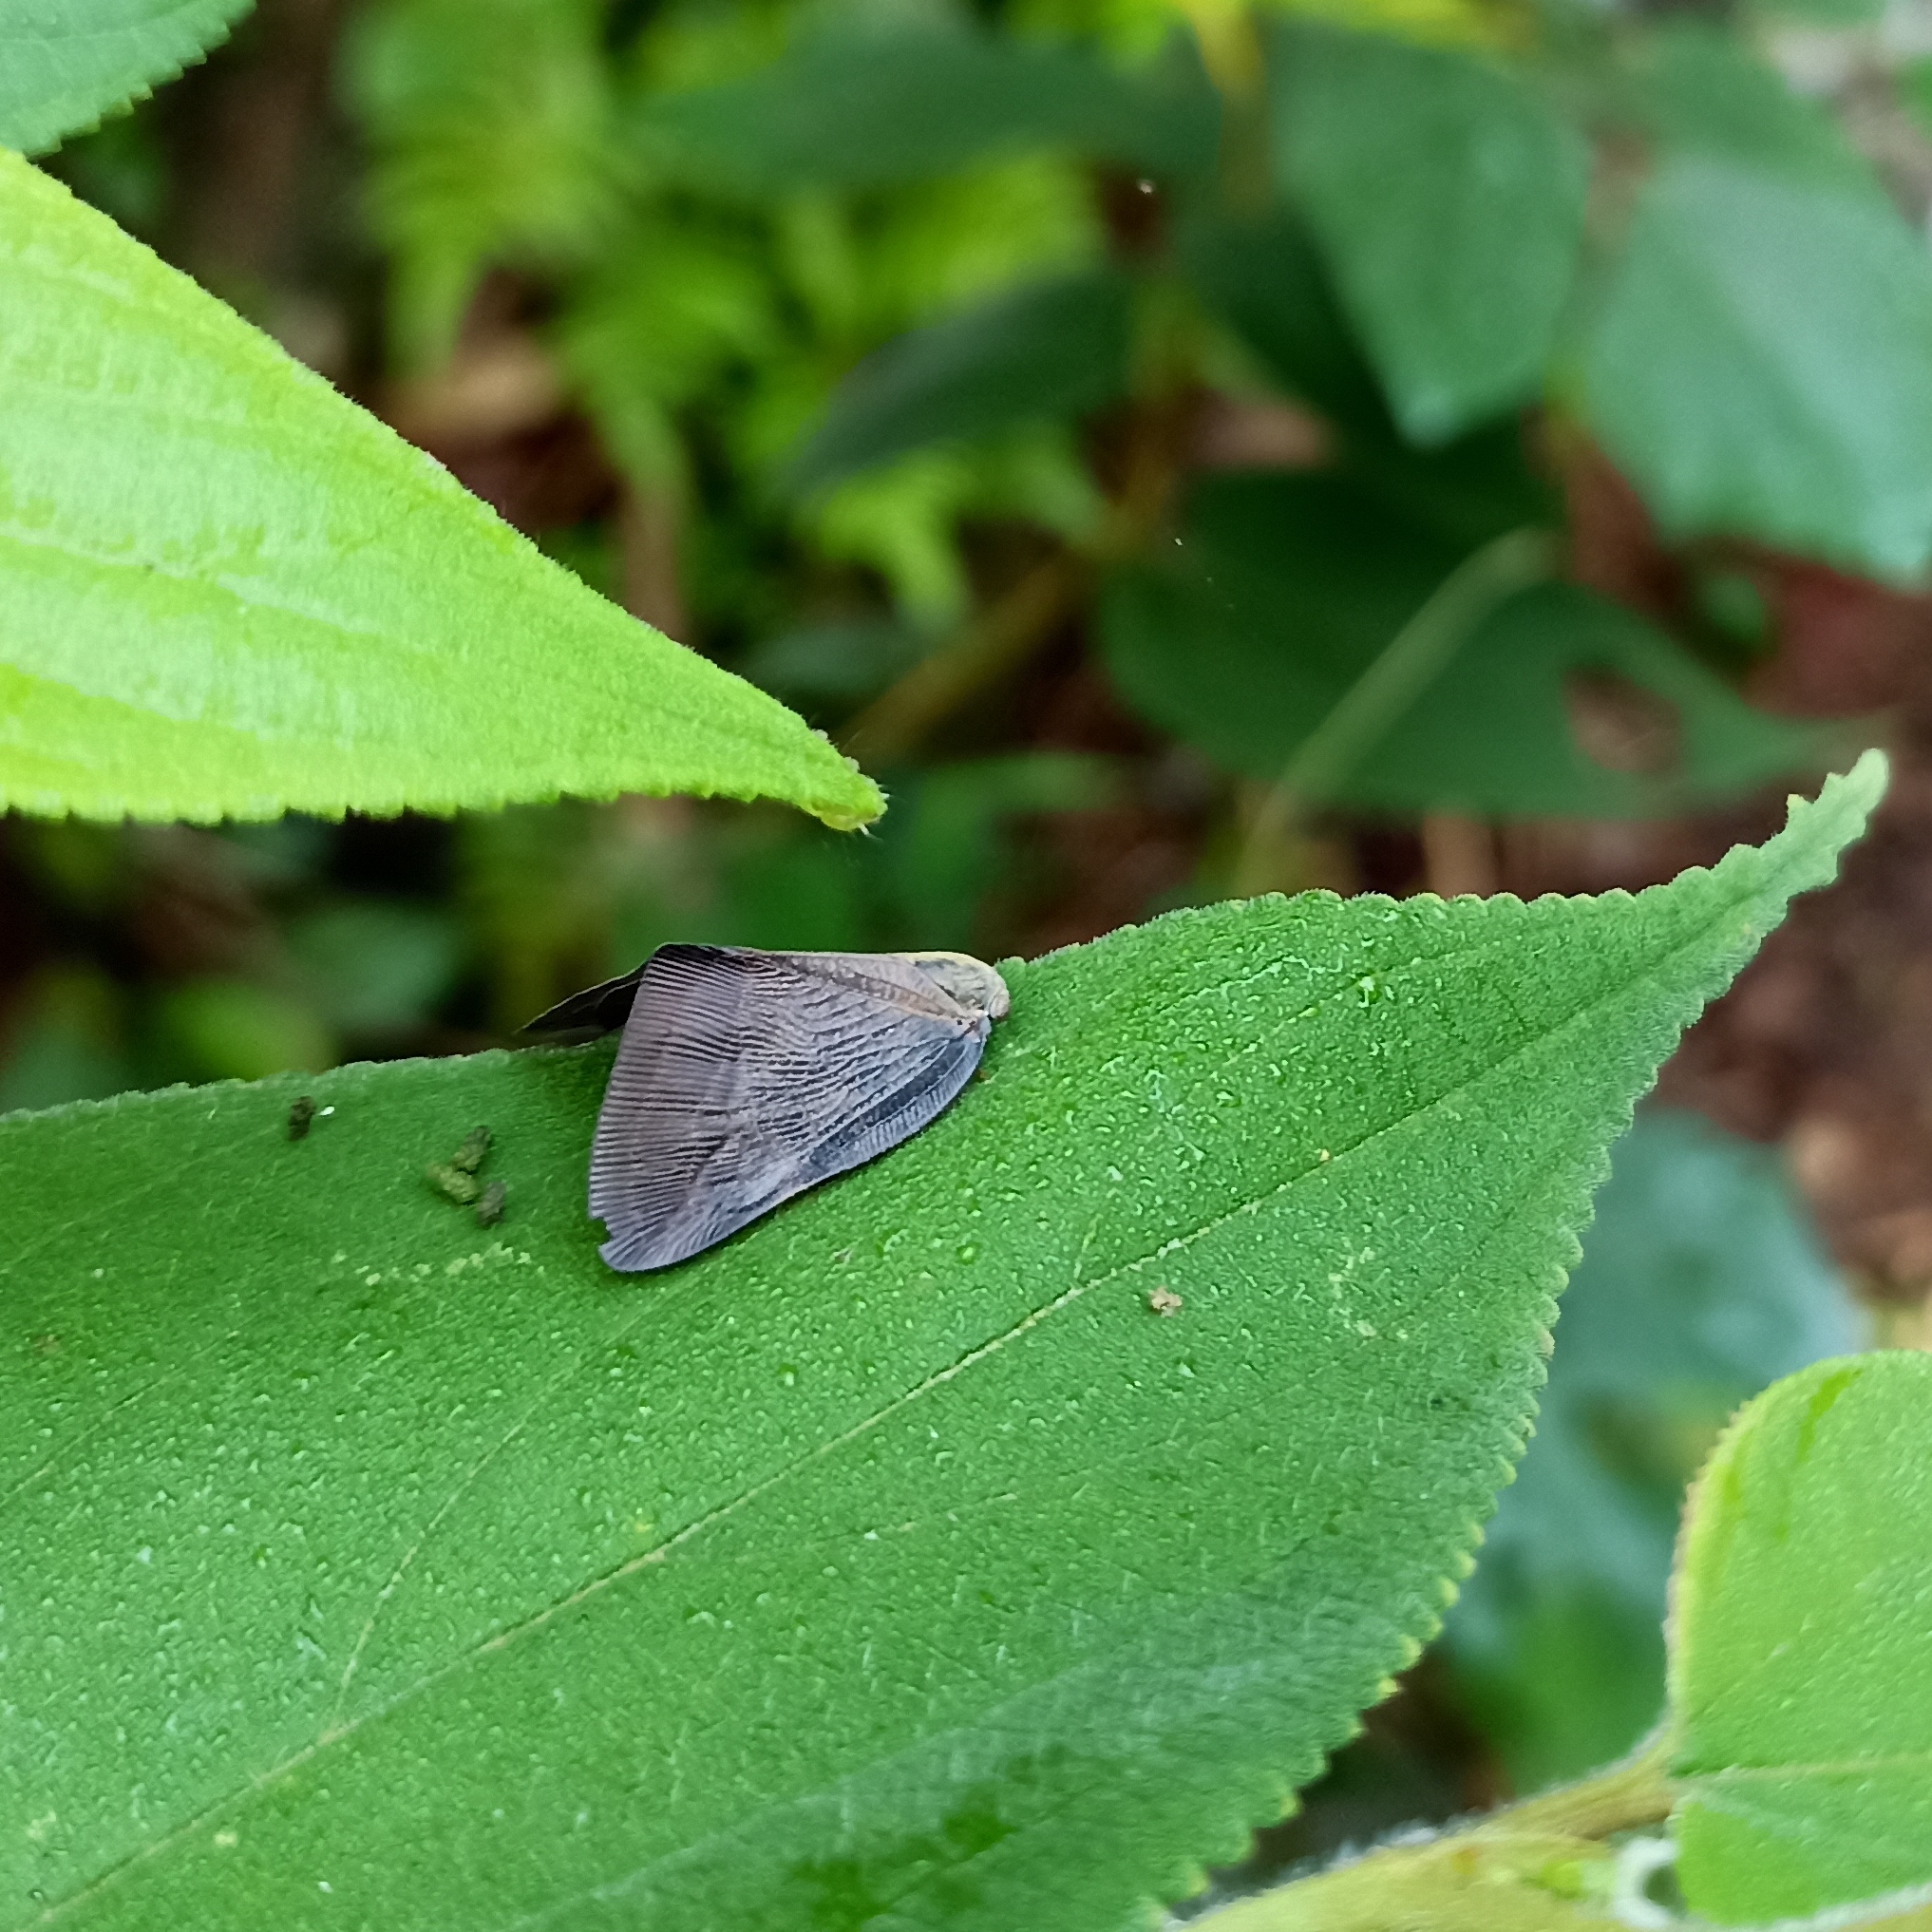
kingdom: Animalia
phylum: Arthropoda
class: Insecta
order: Hemiptera
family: Ricaniidae
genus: Pochazia
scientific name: Pochazia
